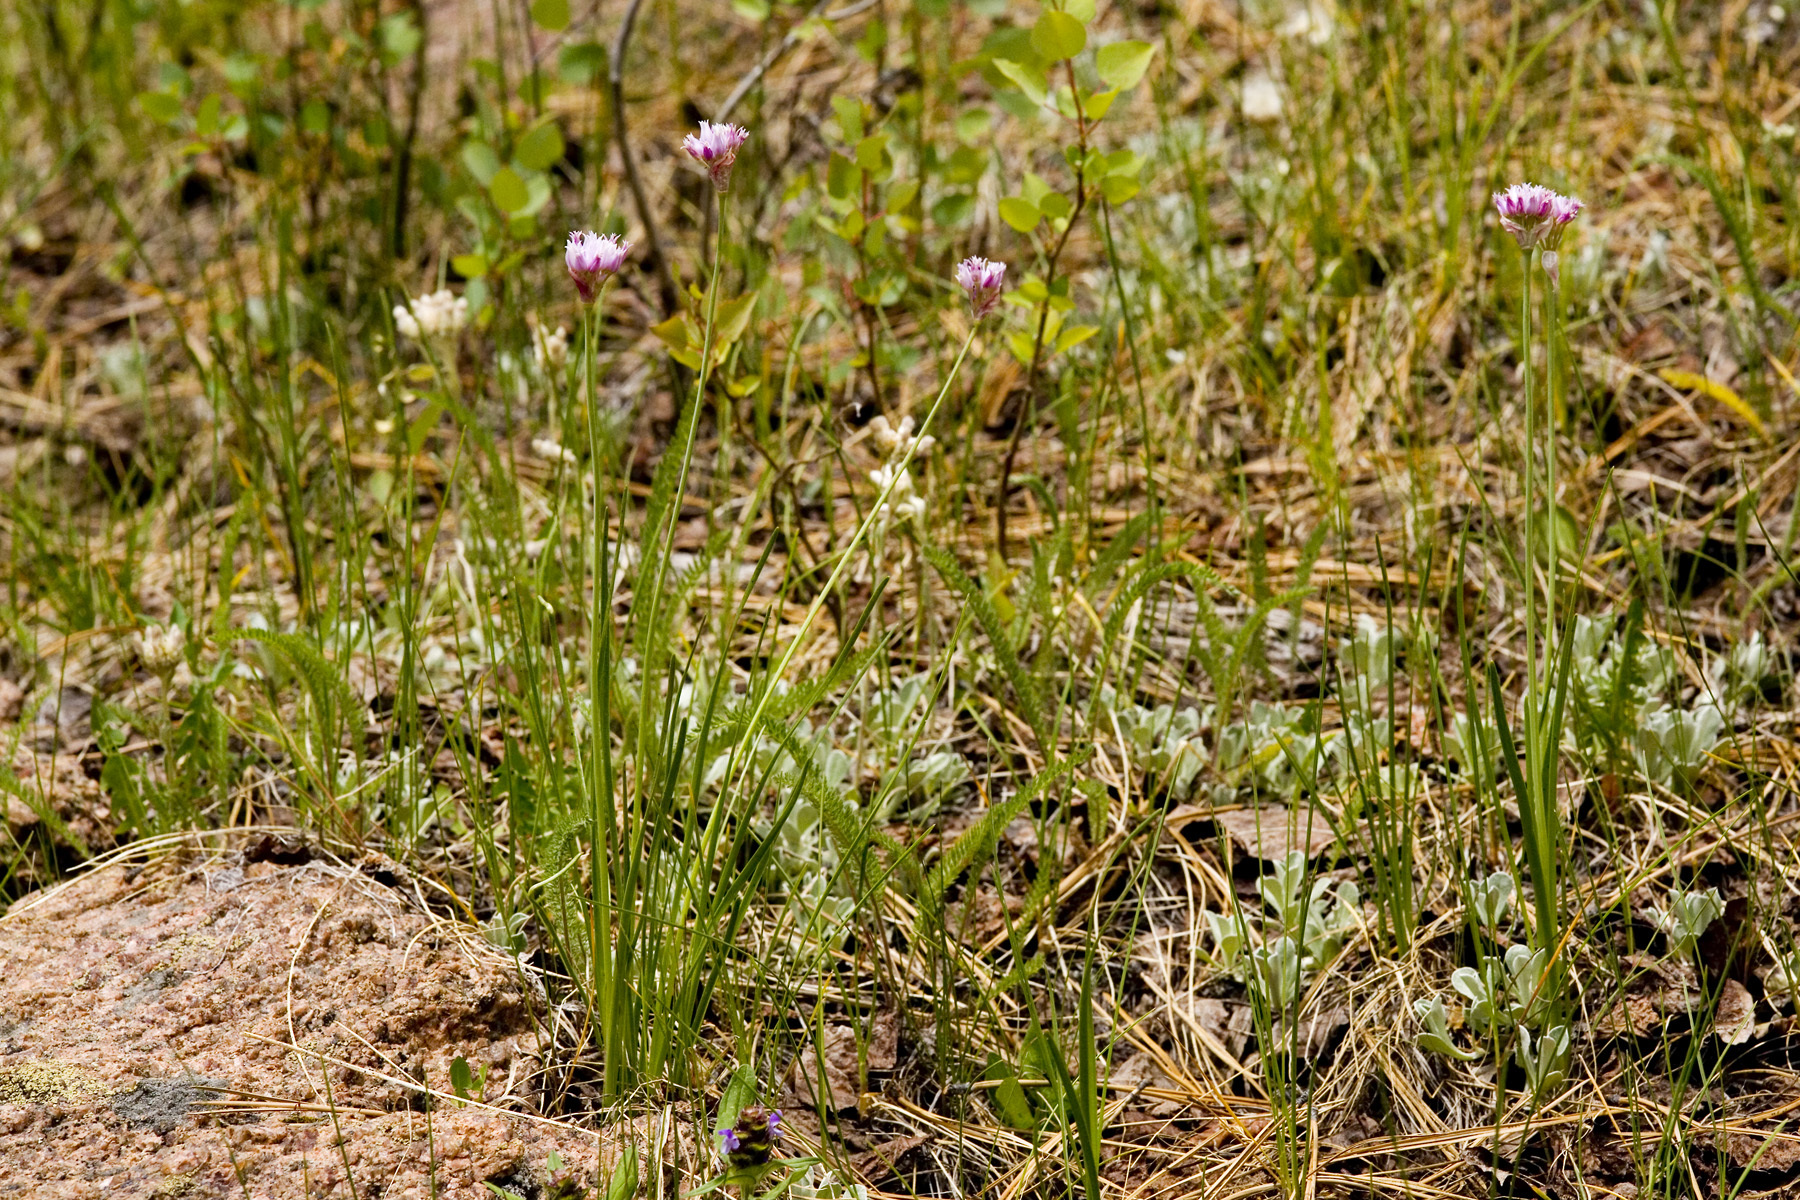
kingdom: Plantae
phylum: Tracheophyta
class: Liliopsida
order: Asparagales
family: Amaryllidaceae
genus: Allium
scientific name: Allium geyeri
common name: Geyer's onion
